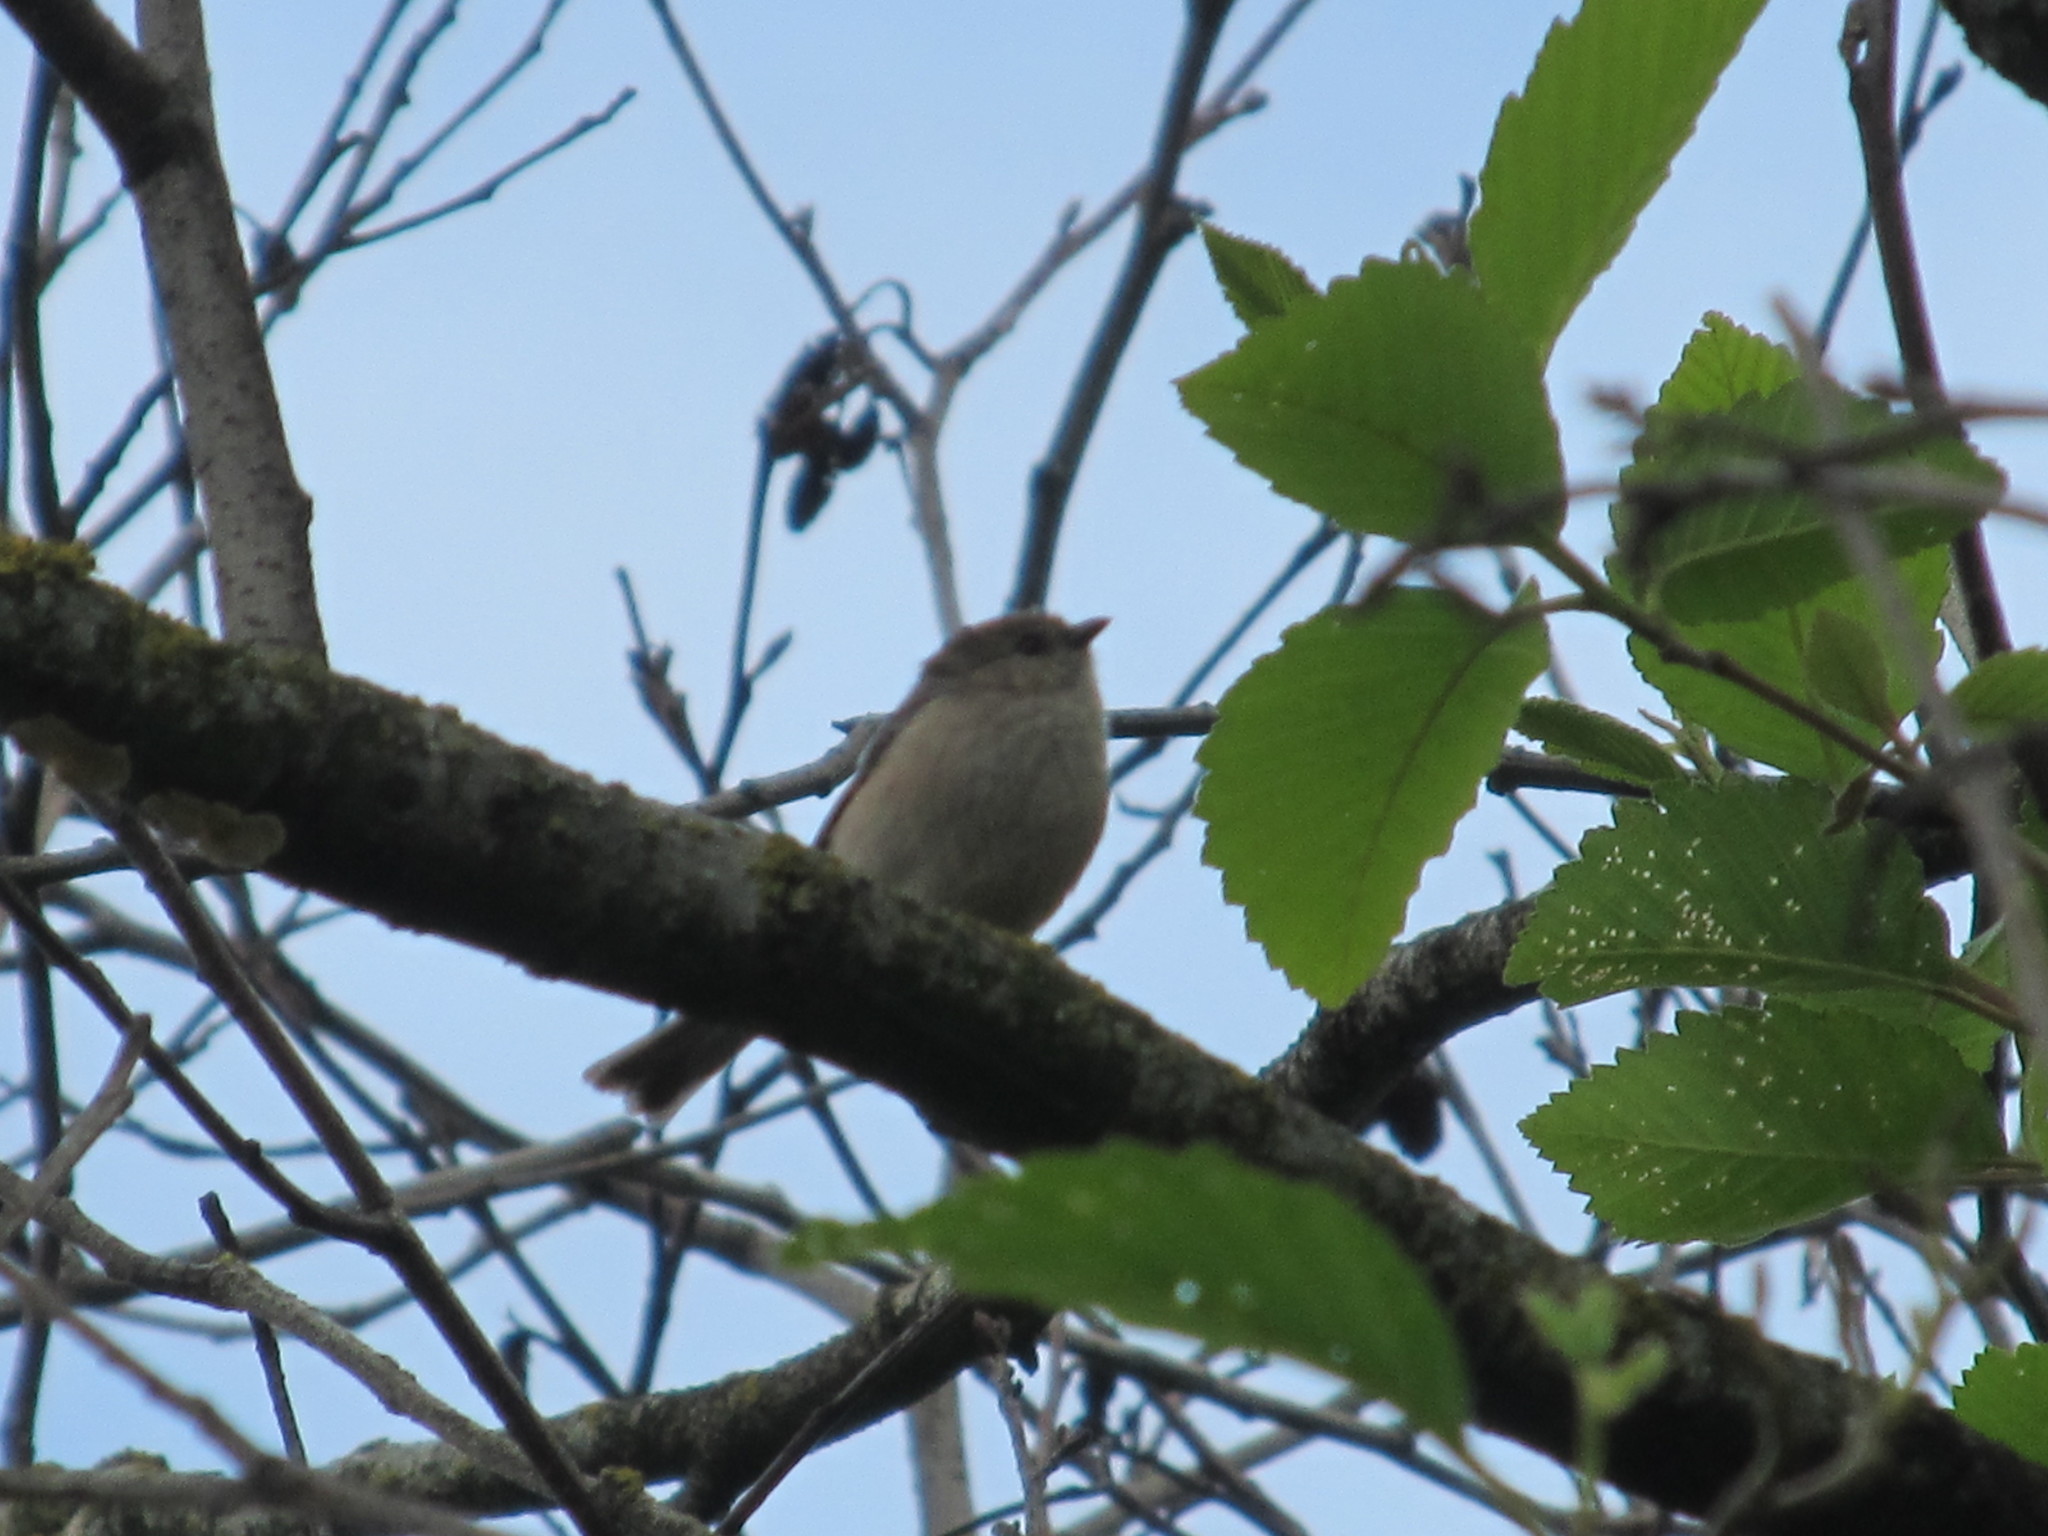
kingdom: Animalia
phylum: Chordata
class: Aves
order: Passeriformes
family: Aegithalidae
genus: Psaltriparus
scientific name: Psaltriparus minimus
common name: American bushtit
